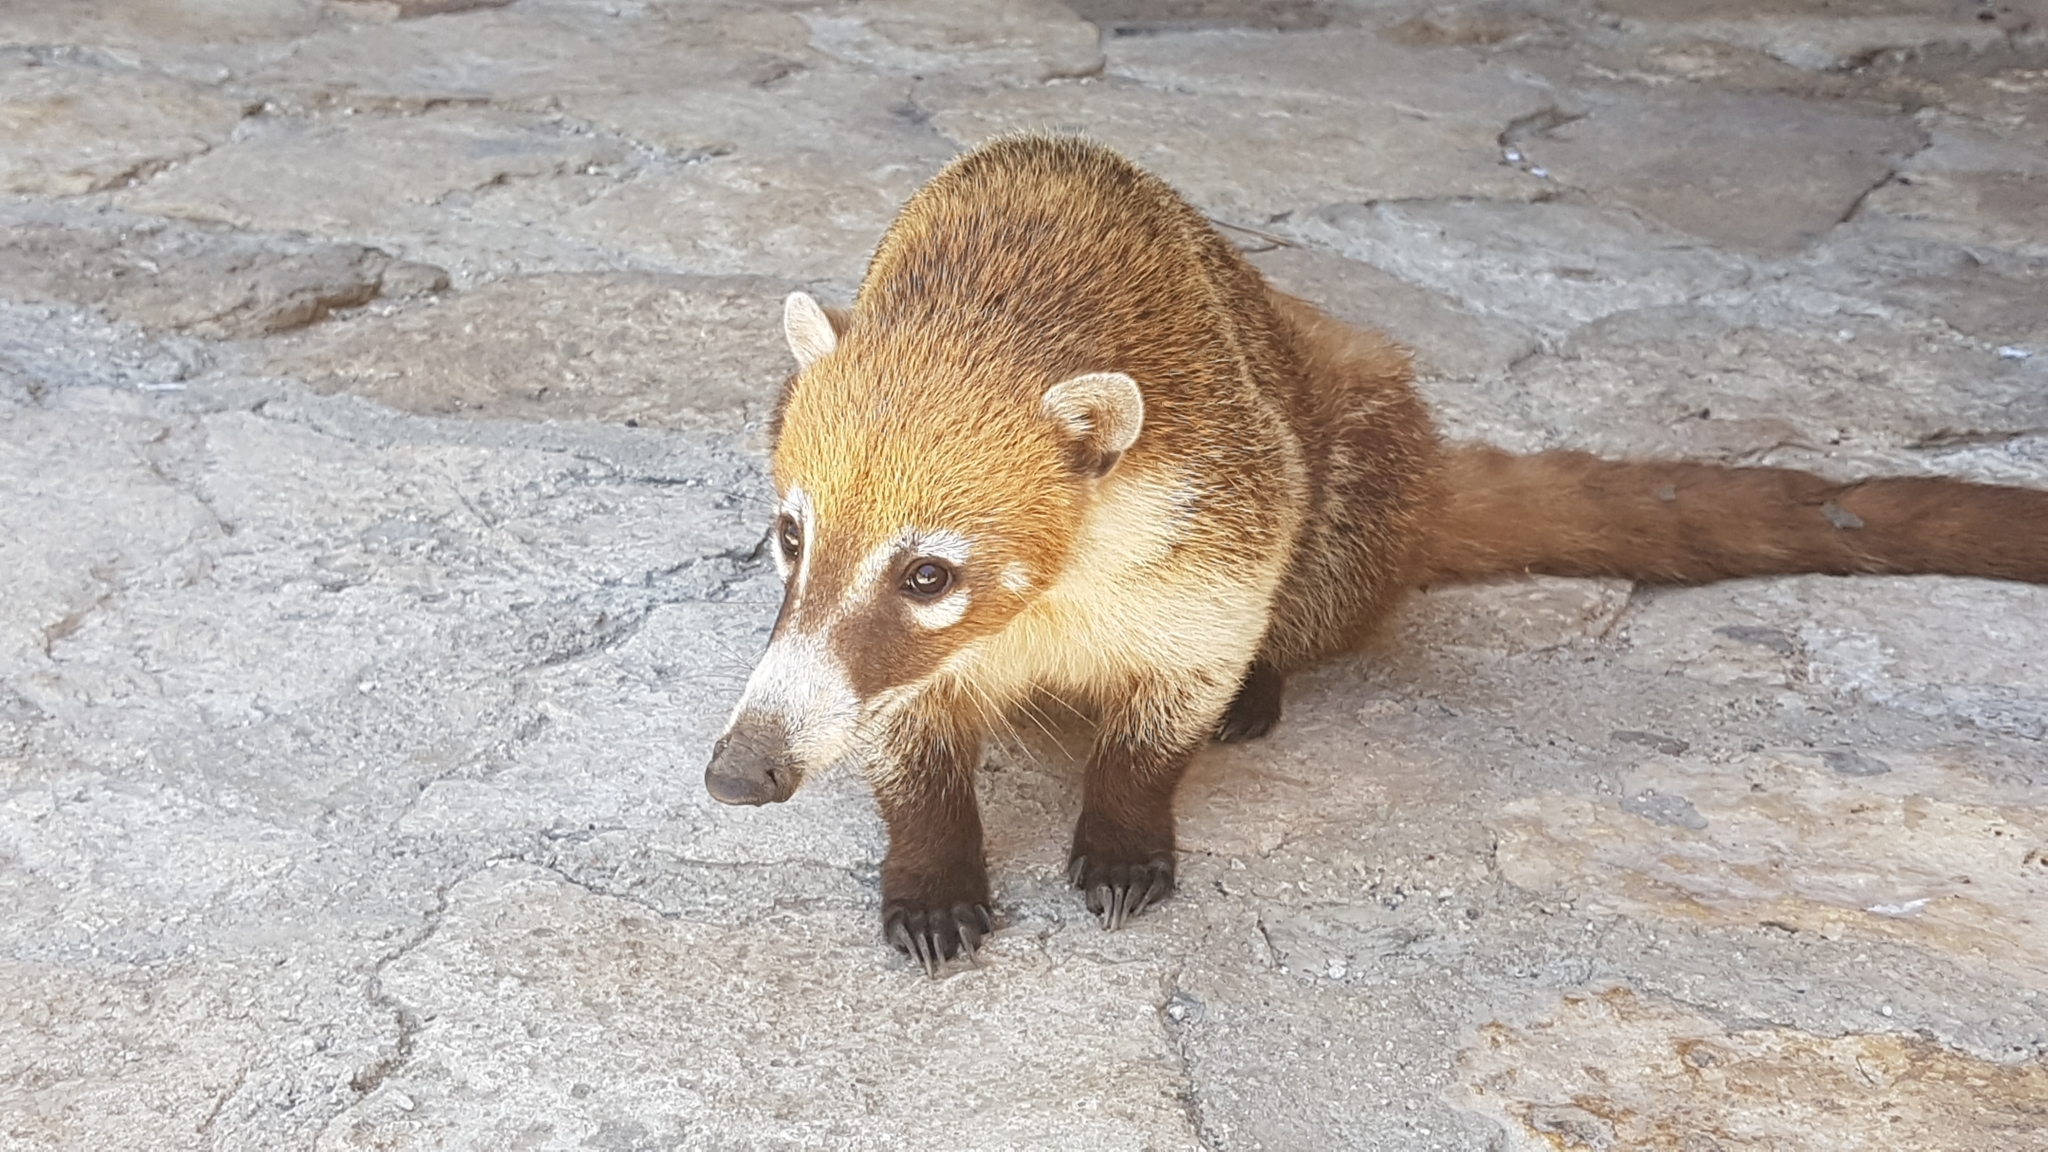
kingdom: Animalia
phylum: Chordata
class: Mammalia
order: Carnivora
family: Procyonidae
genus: Nasua
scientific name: Nasua narica
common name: White-nosed coati
